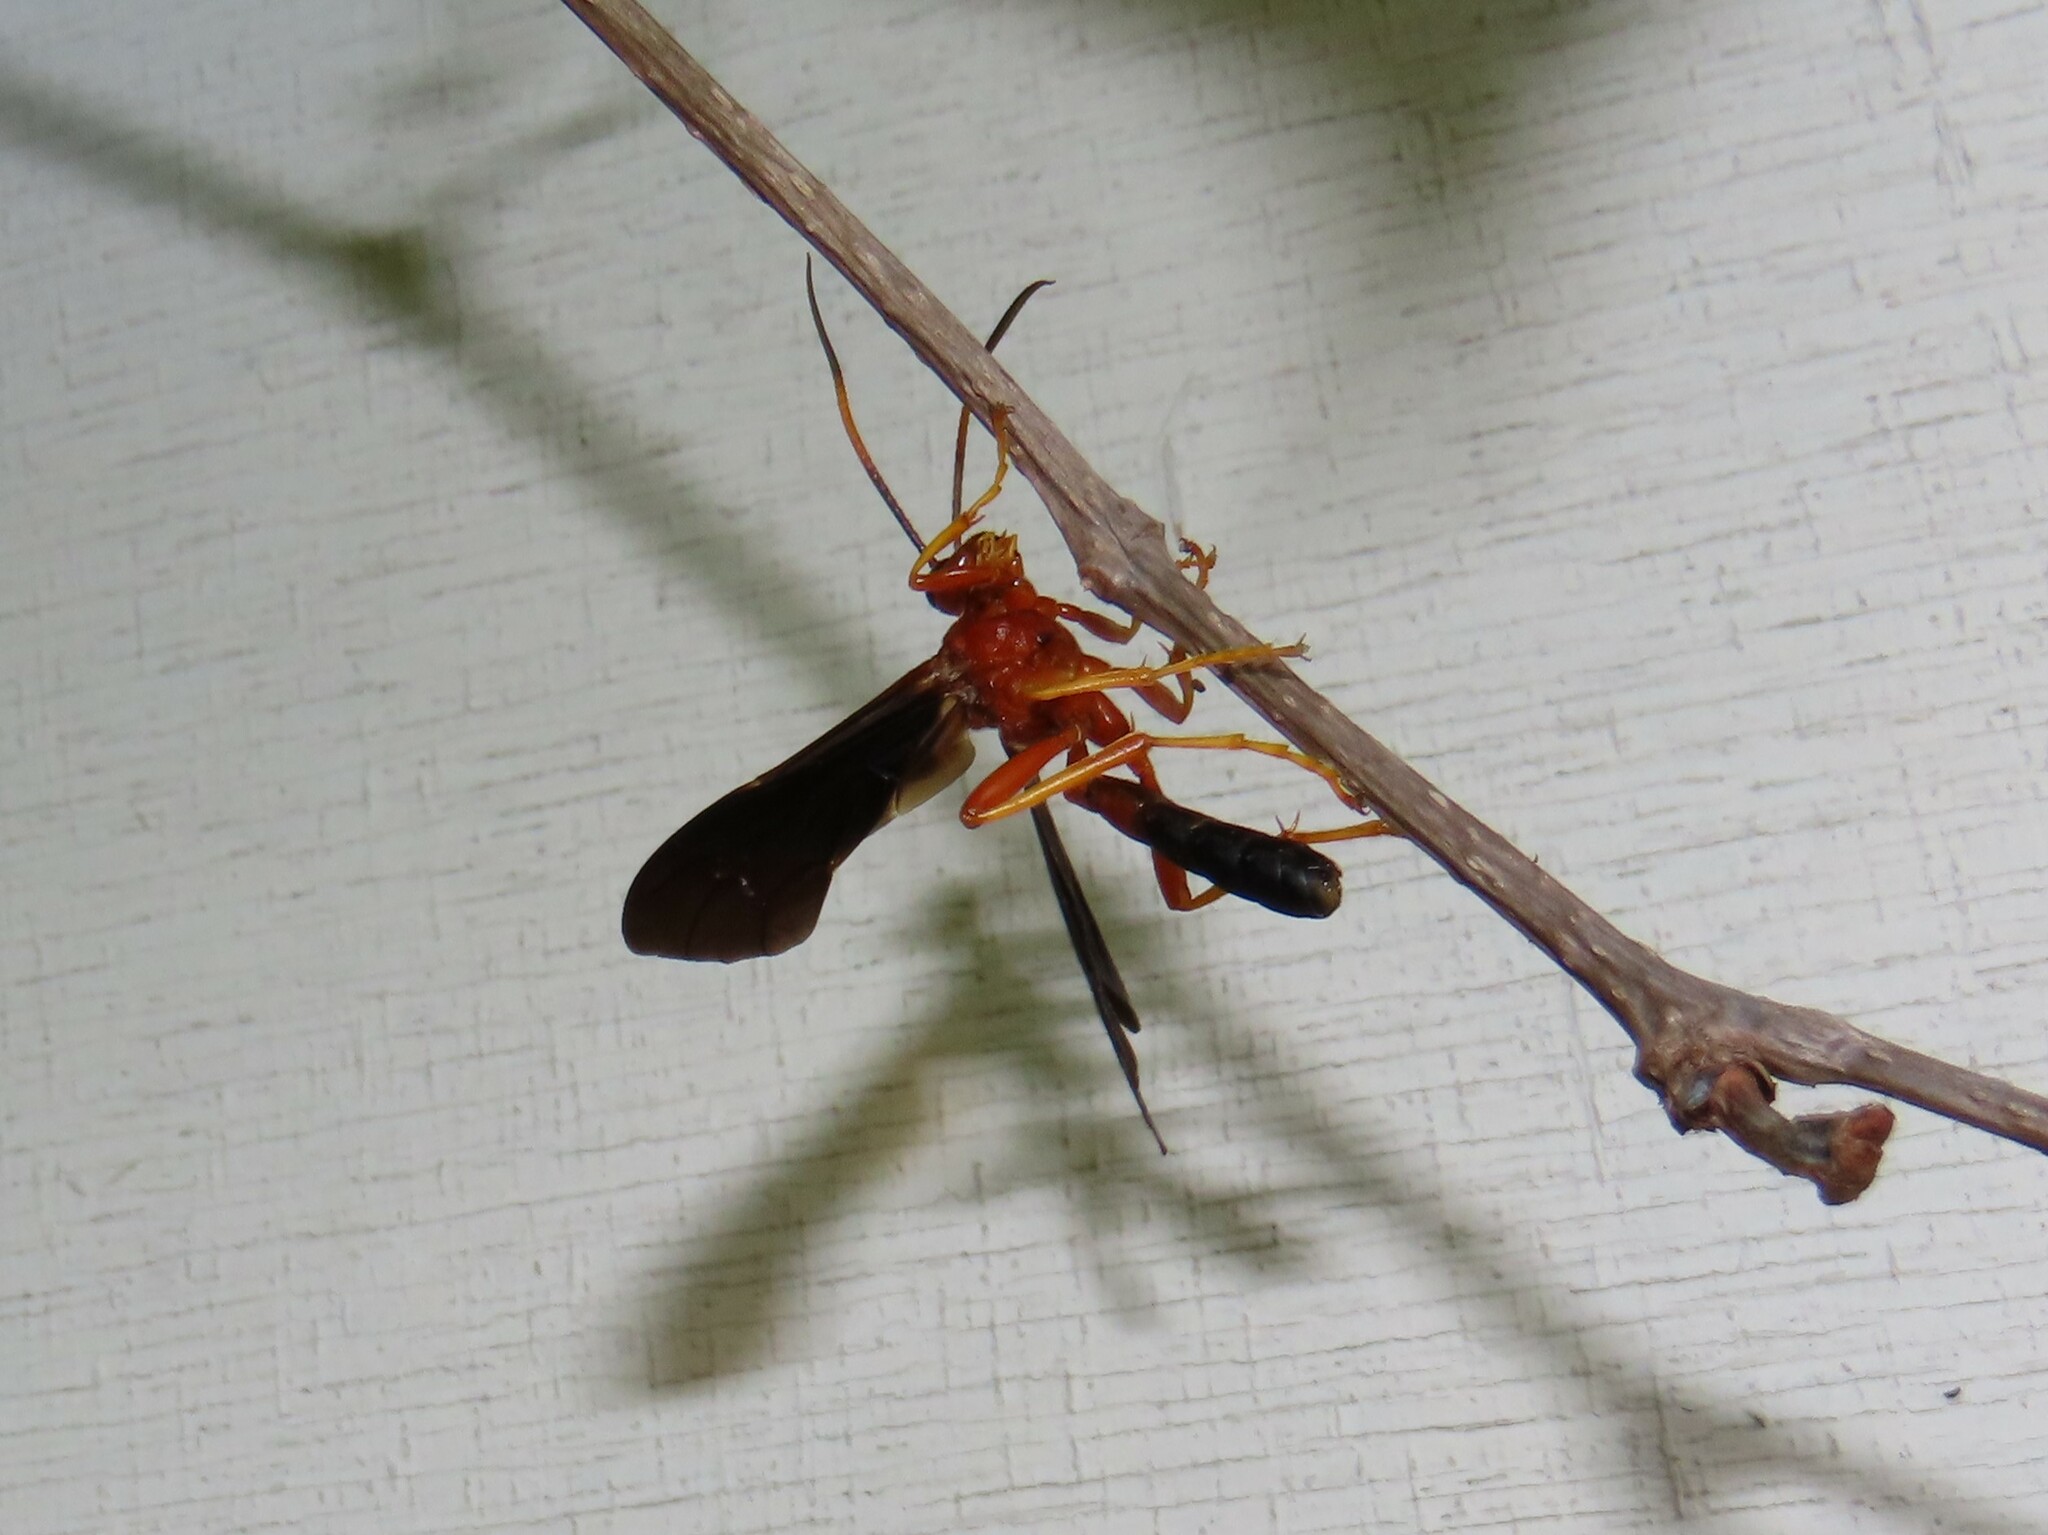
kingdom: Animalia
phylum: Arthropoda
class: Insecta
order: Hymenoptera
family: Ichneumonidae
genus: Tmetogaster
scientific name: Tmetogaster nubilipennis
